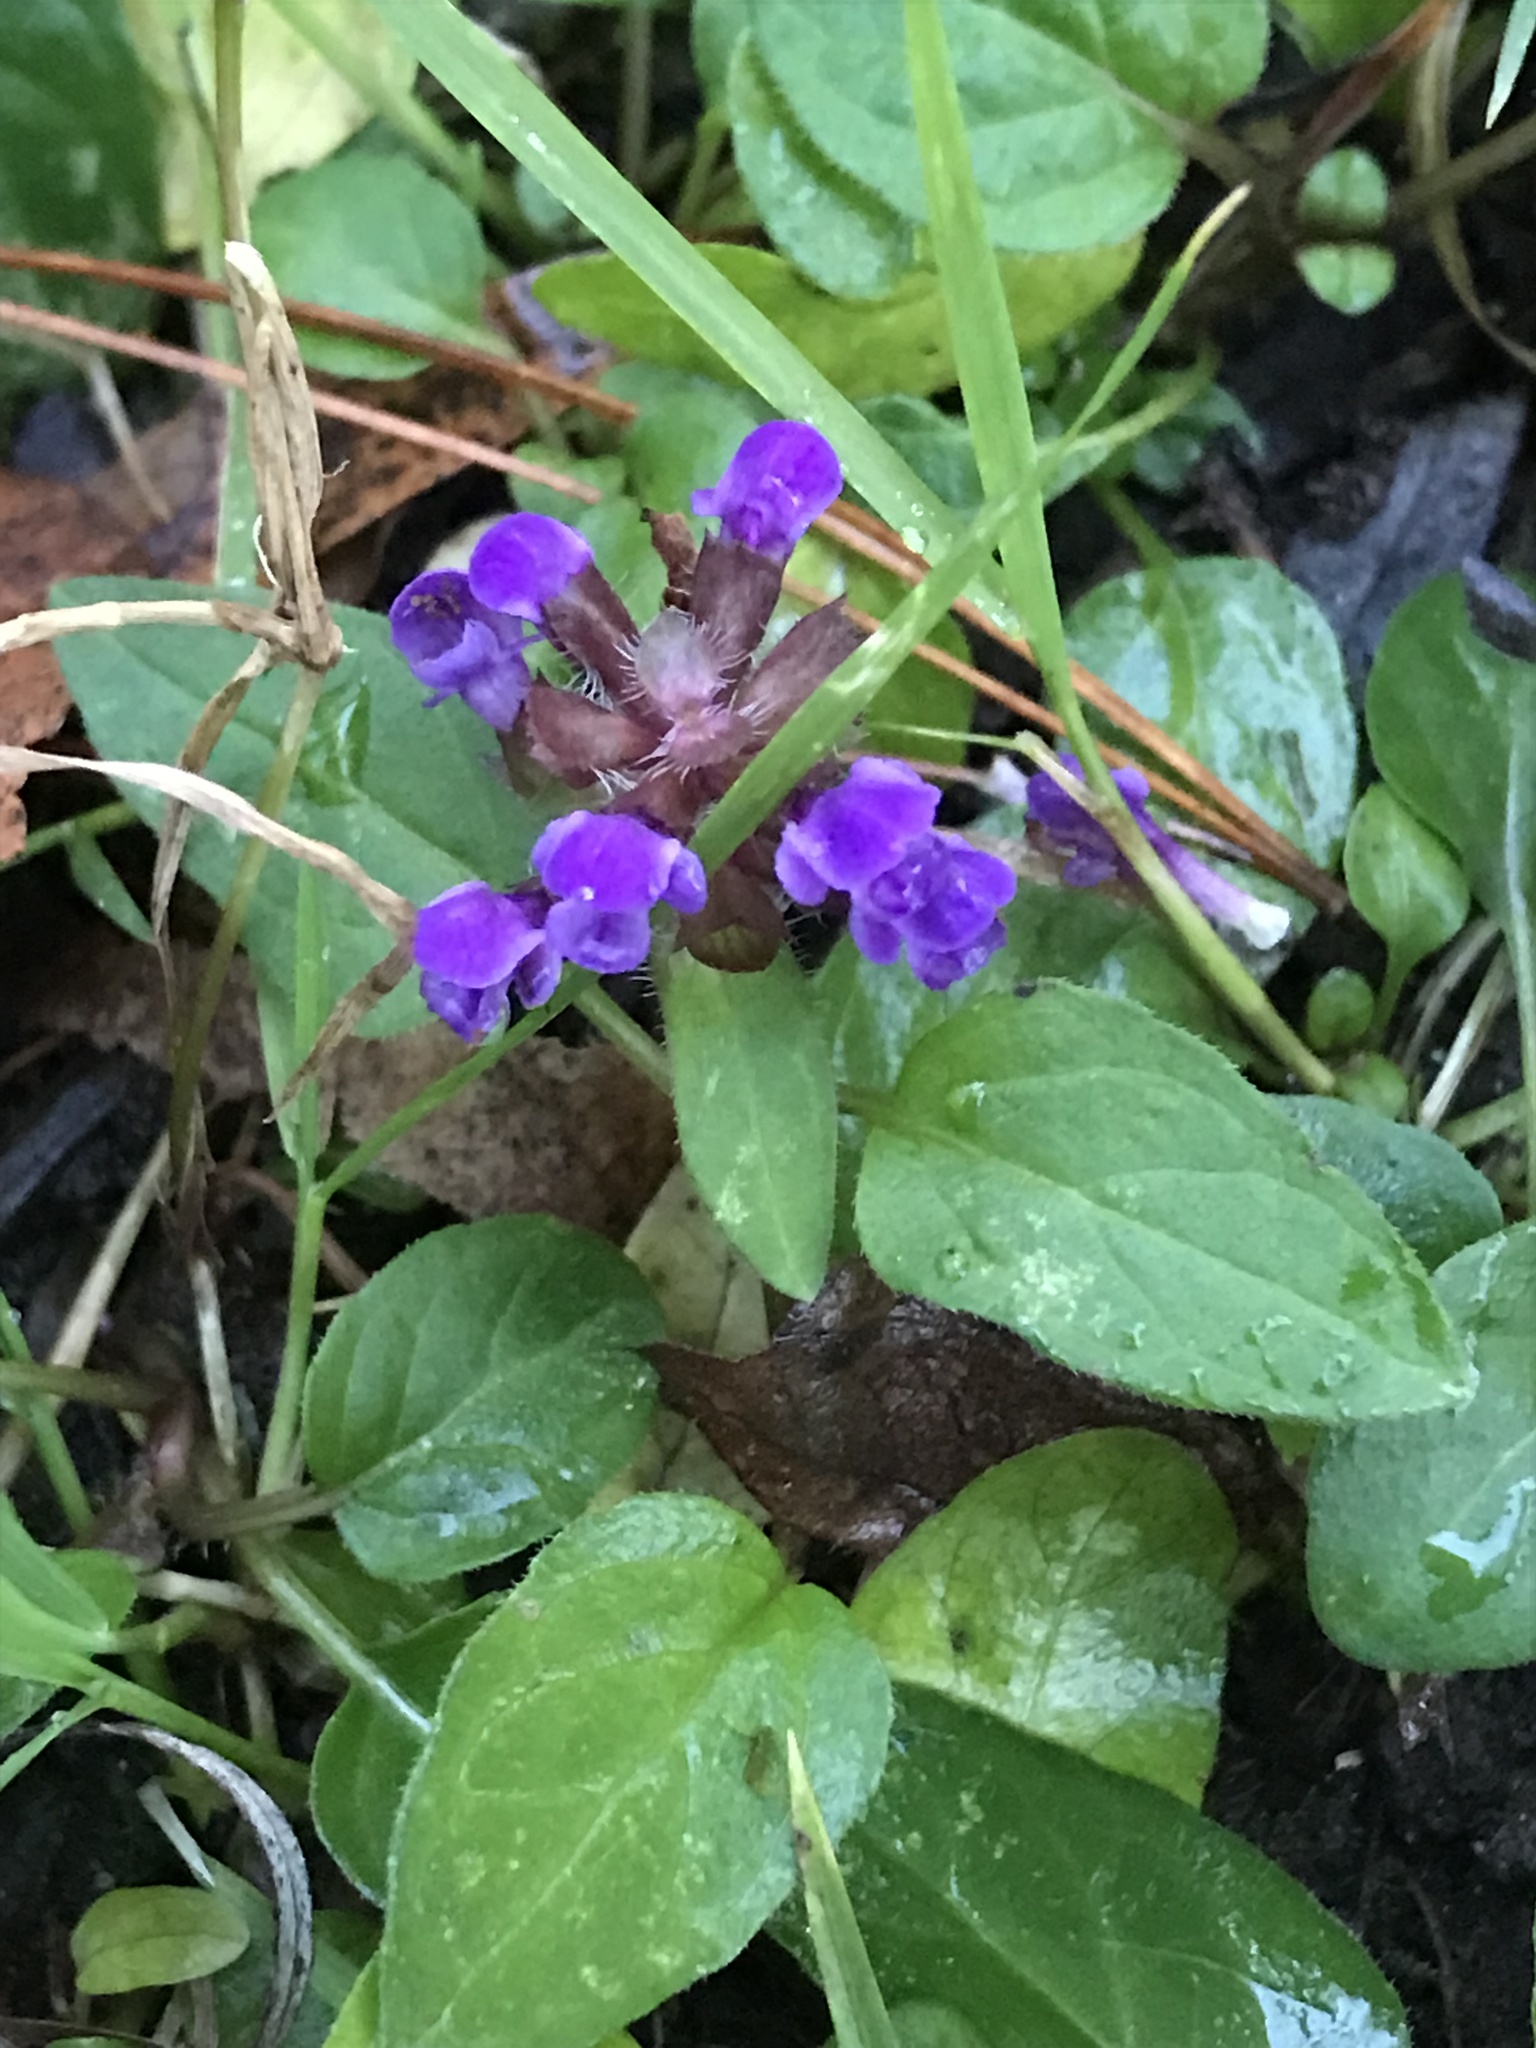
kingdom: Plantae
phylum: Tracheophyta
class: Magnoliopsida
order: Lamiales
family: Lamiaceae
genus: Prunella
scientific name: Prunella vulgaris
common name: Heal-all
